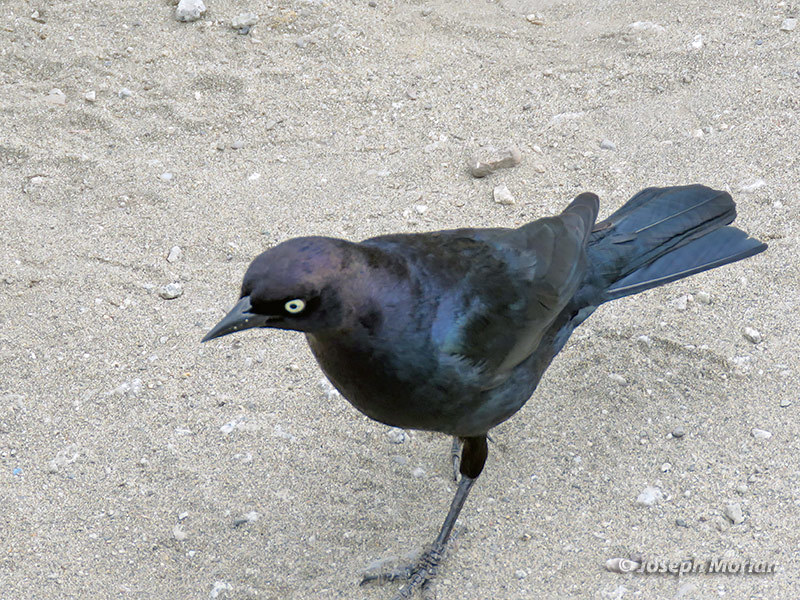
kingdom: Animalia
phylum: Chordata
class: Aves
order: Passeriformes
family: Icteridae
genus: Euphagus
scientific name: Euphagus cyanocephalus
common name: Brewer's blackbird
